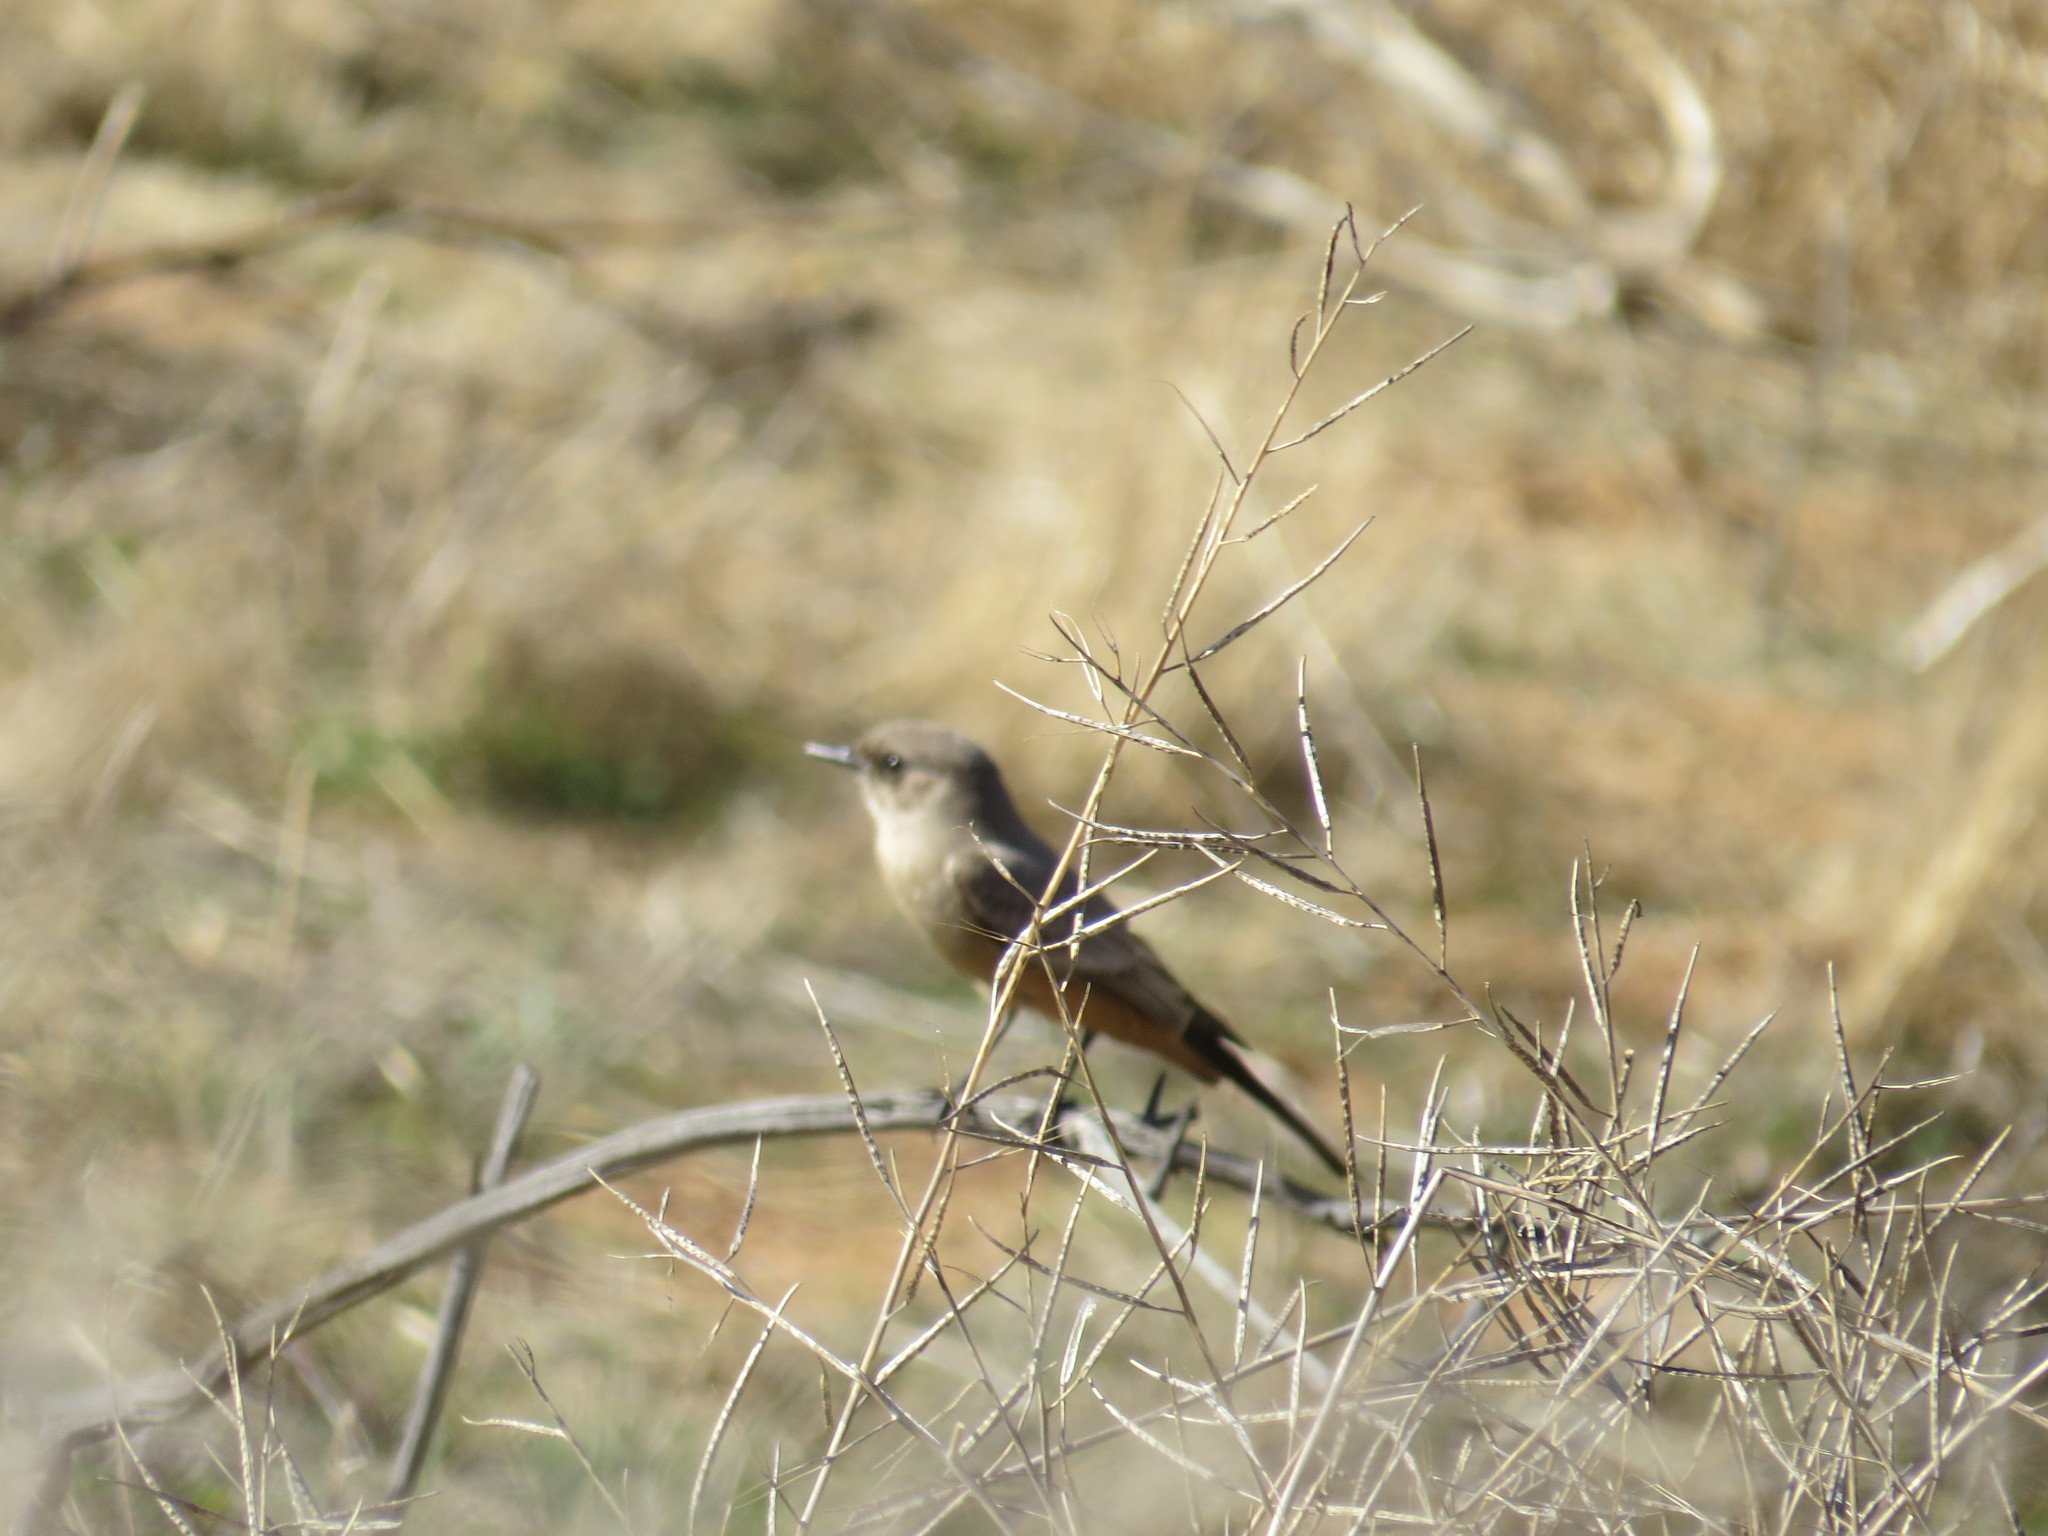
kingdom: Animalia
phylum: Chordata
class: Aves
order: Passeriformes
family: Tyrannidae
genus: Sayornis
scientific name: Sayornis saya
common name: Say's phoebe
